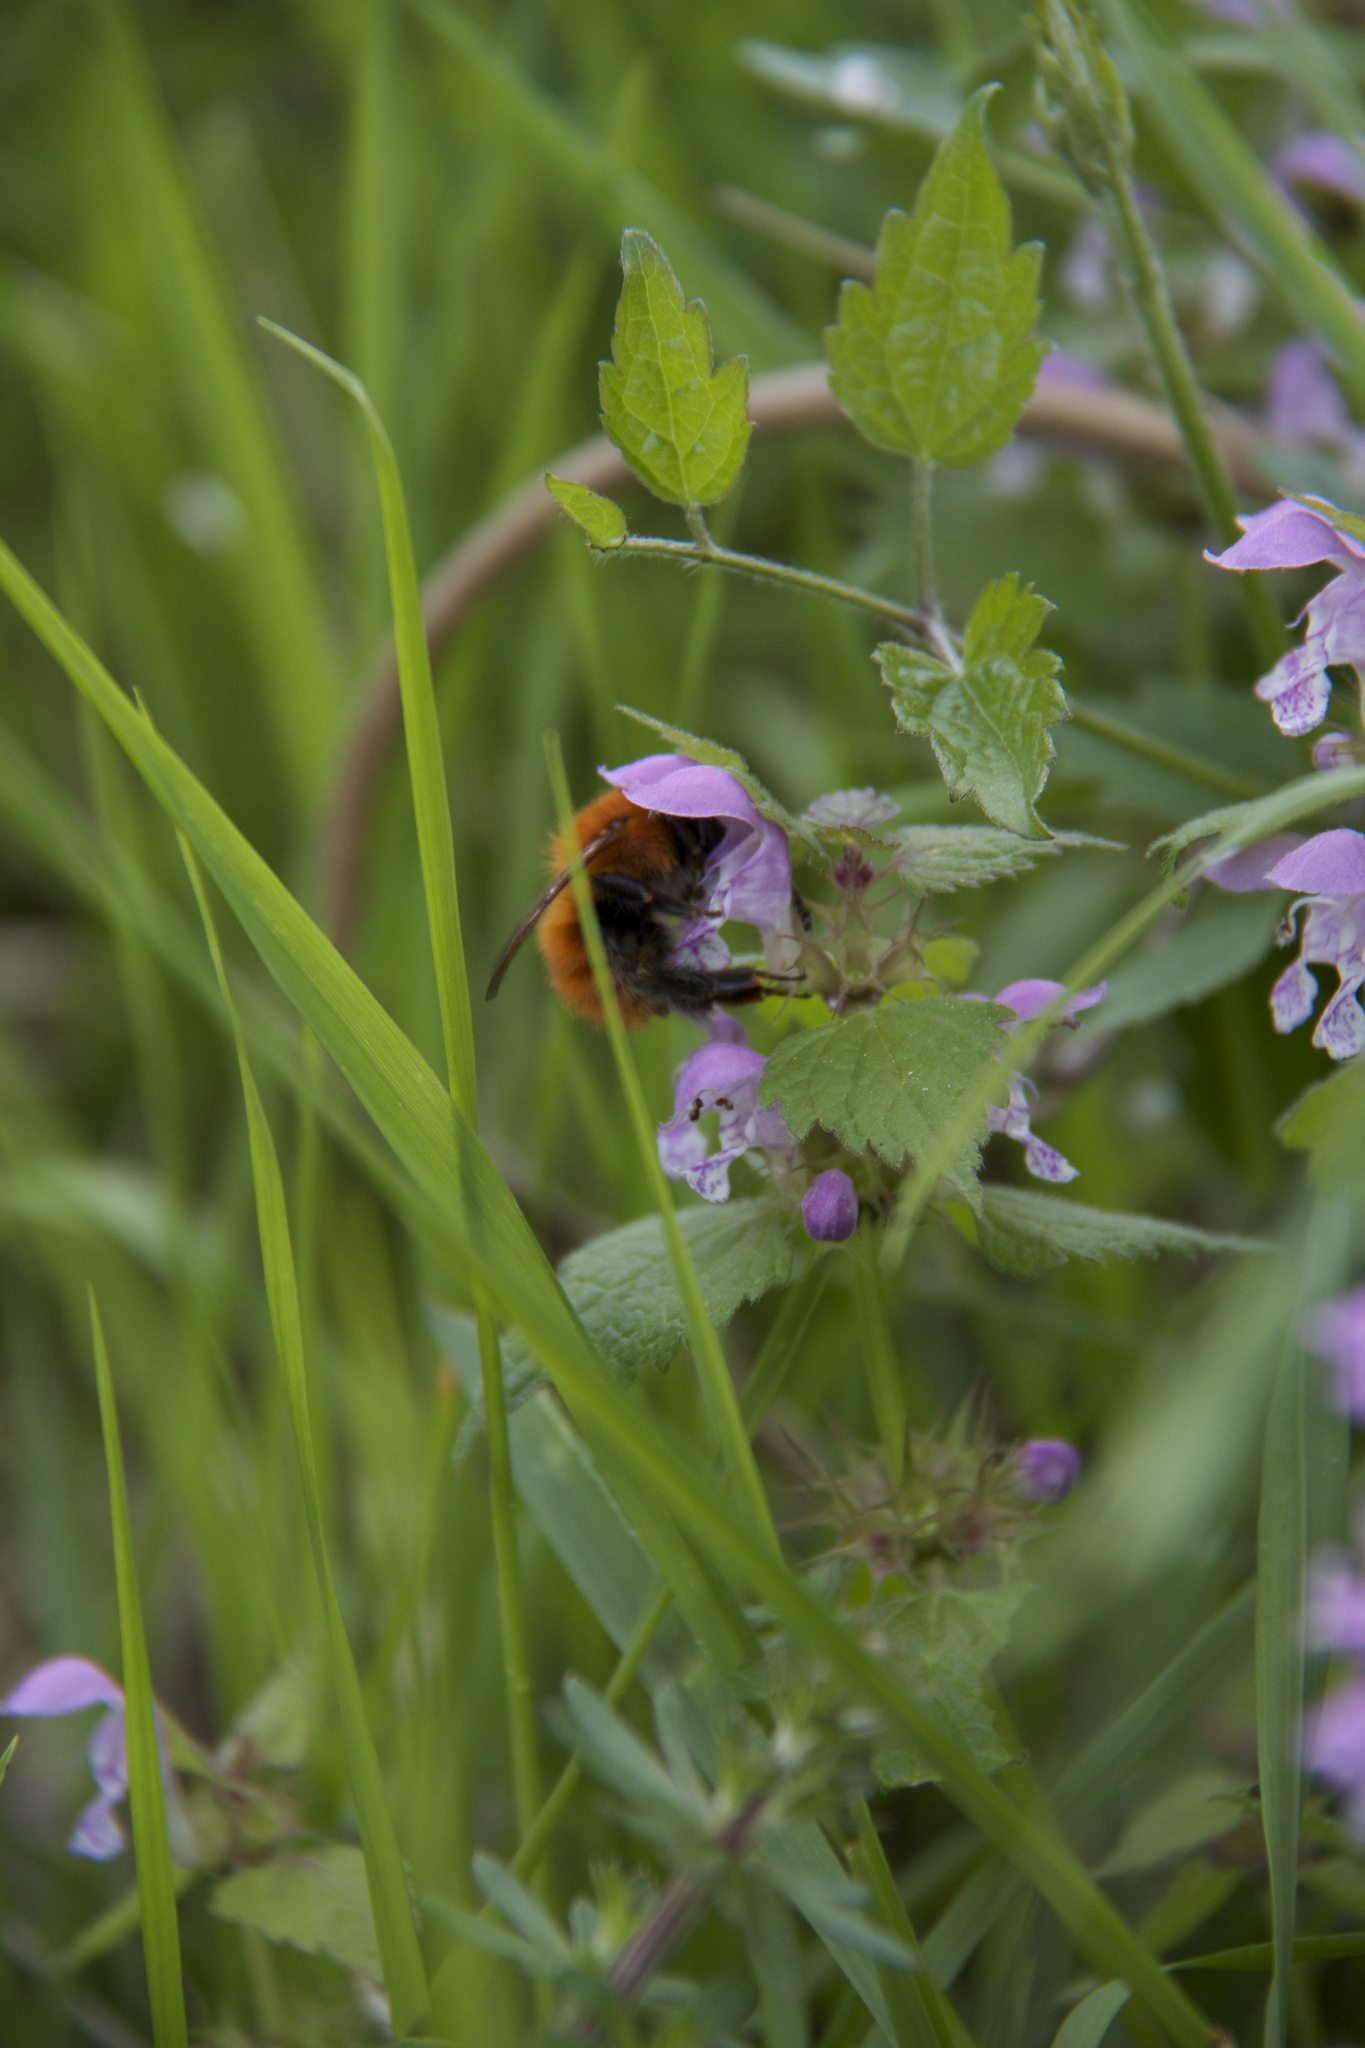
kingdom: Animalia
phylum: Arthropoda
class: Insecta
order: Hymenoptera
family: Apidae
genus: Bombus
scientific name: Bombus pascuorum
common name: Common carder bee
